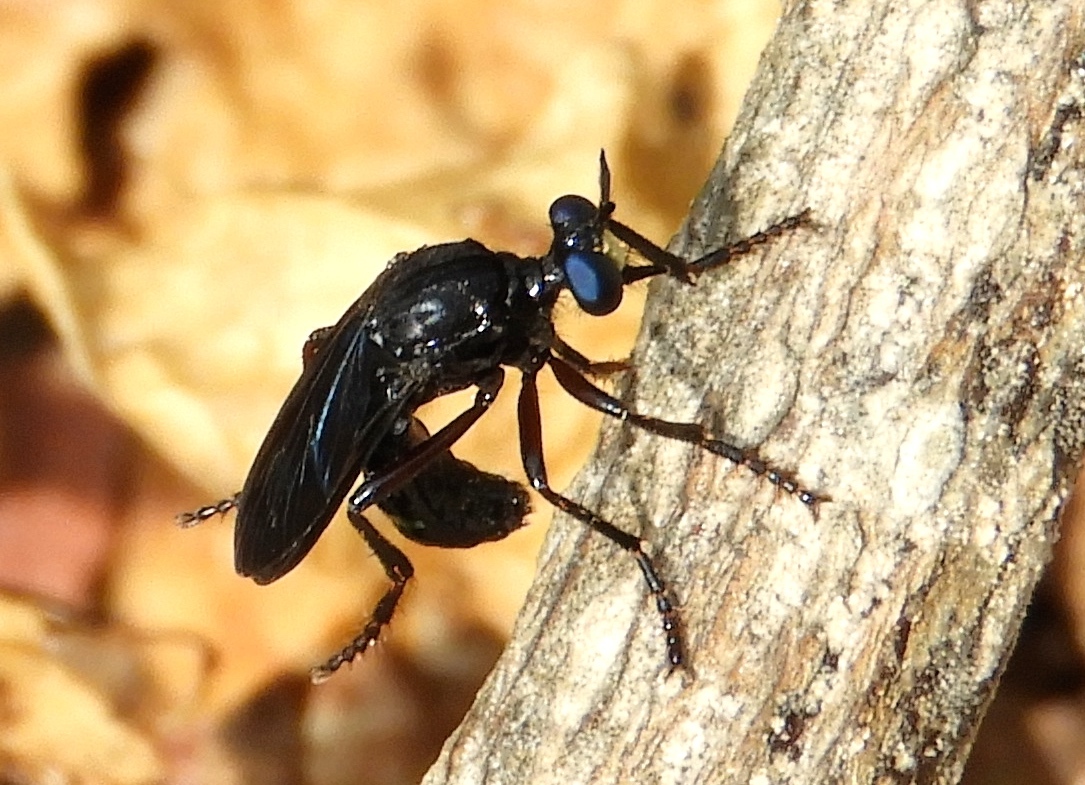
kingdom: Animalia
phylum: Arthropoda
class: Insecta
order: Diptera
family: Asilidae
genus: Saropogon
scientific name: Saropogon
